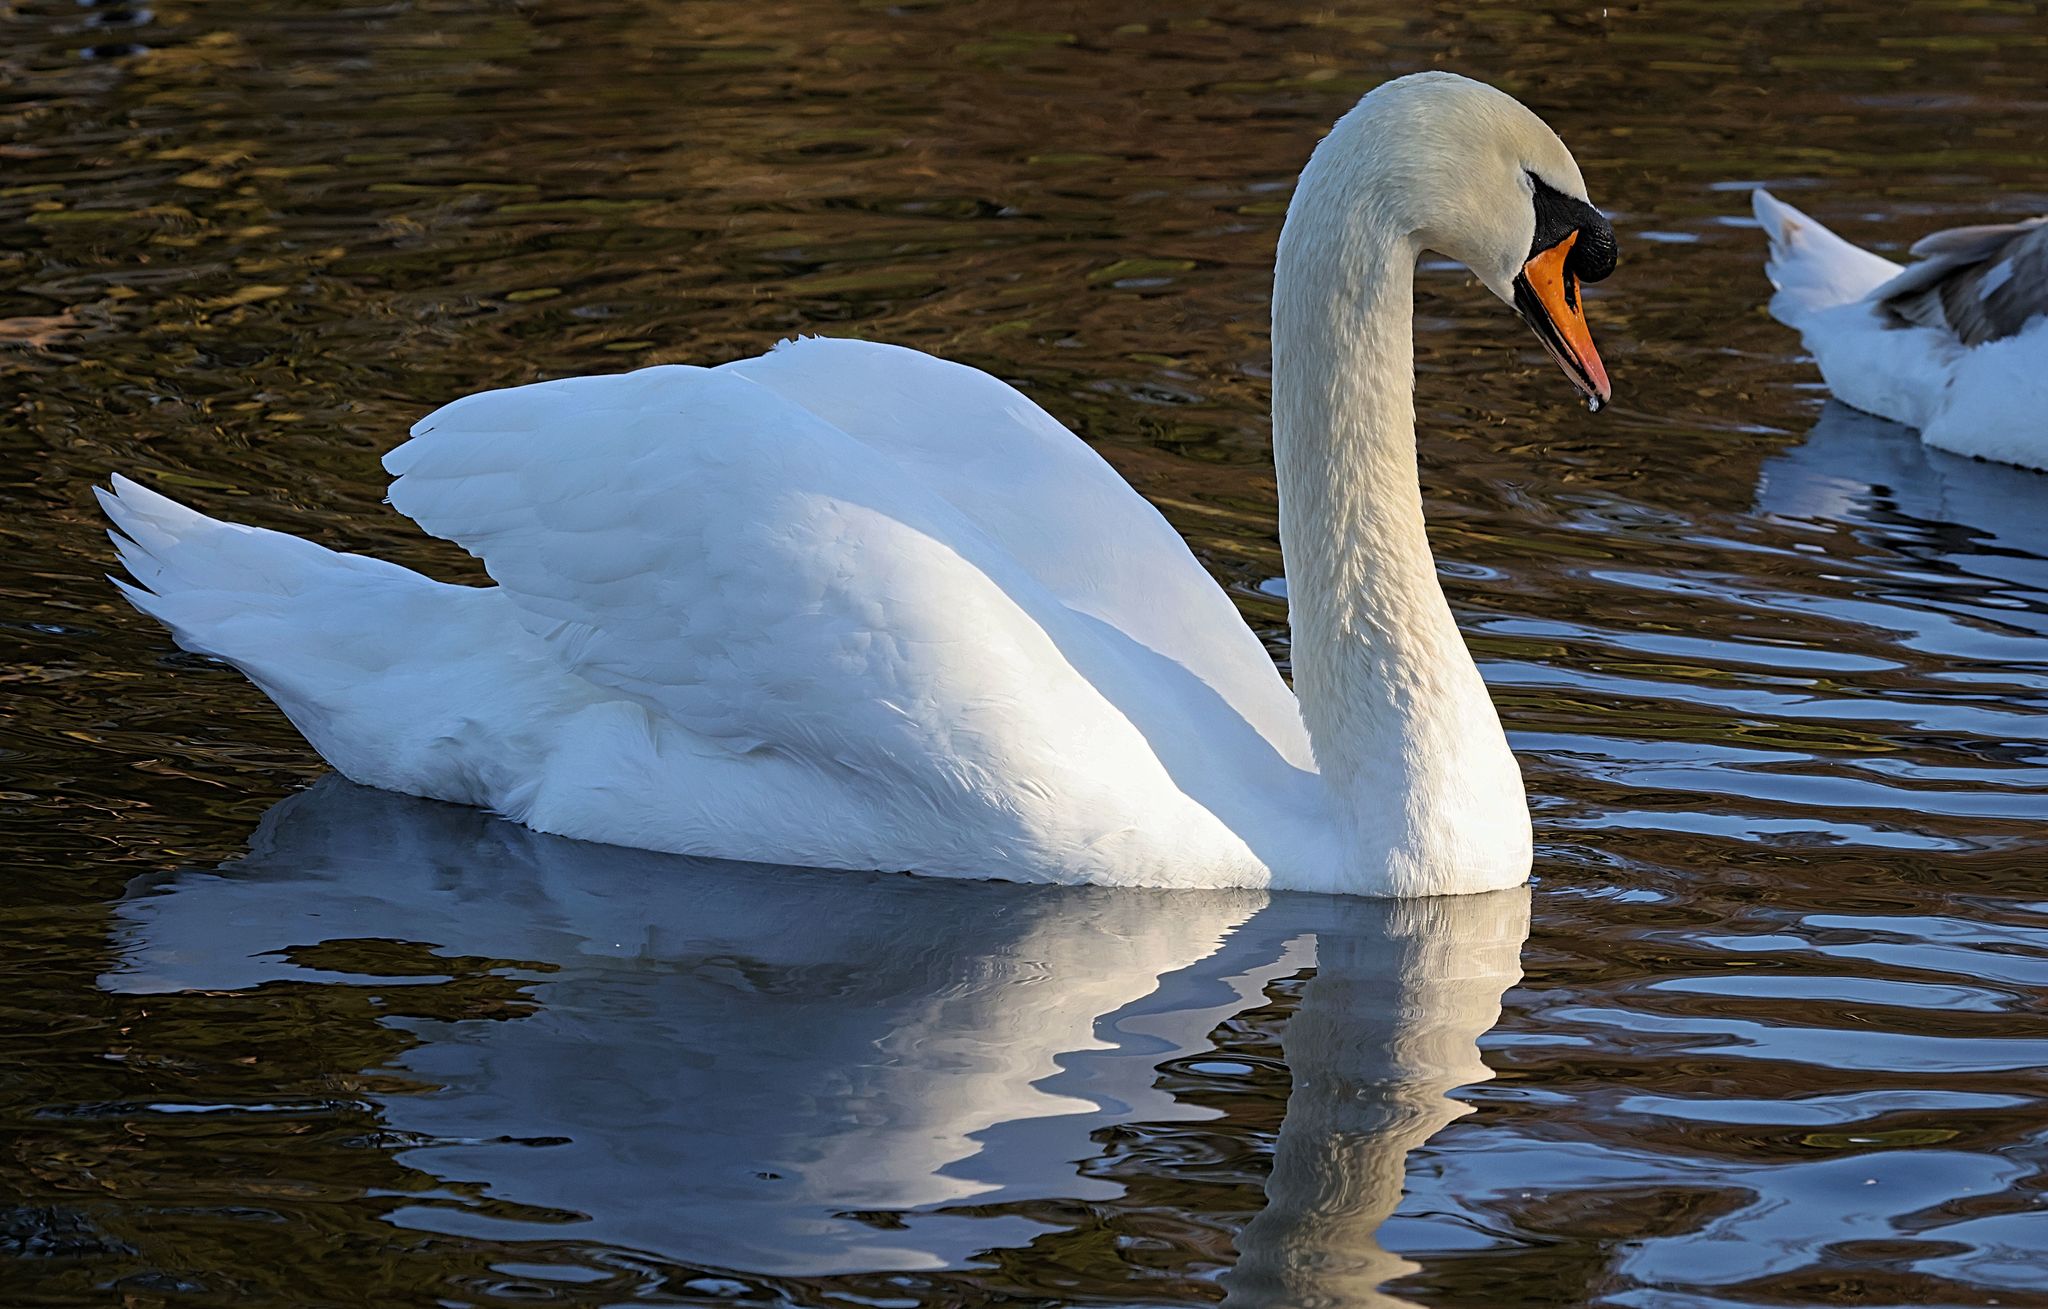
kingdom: Animalia
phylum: Chordata
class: Aves
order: Anseriformes
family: Anatidae
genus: Cygnus
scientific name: Cygnus olor
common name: Mute swan
